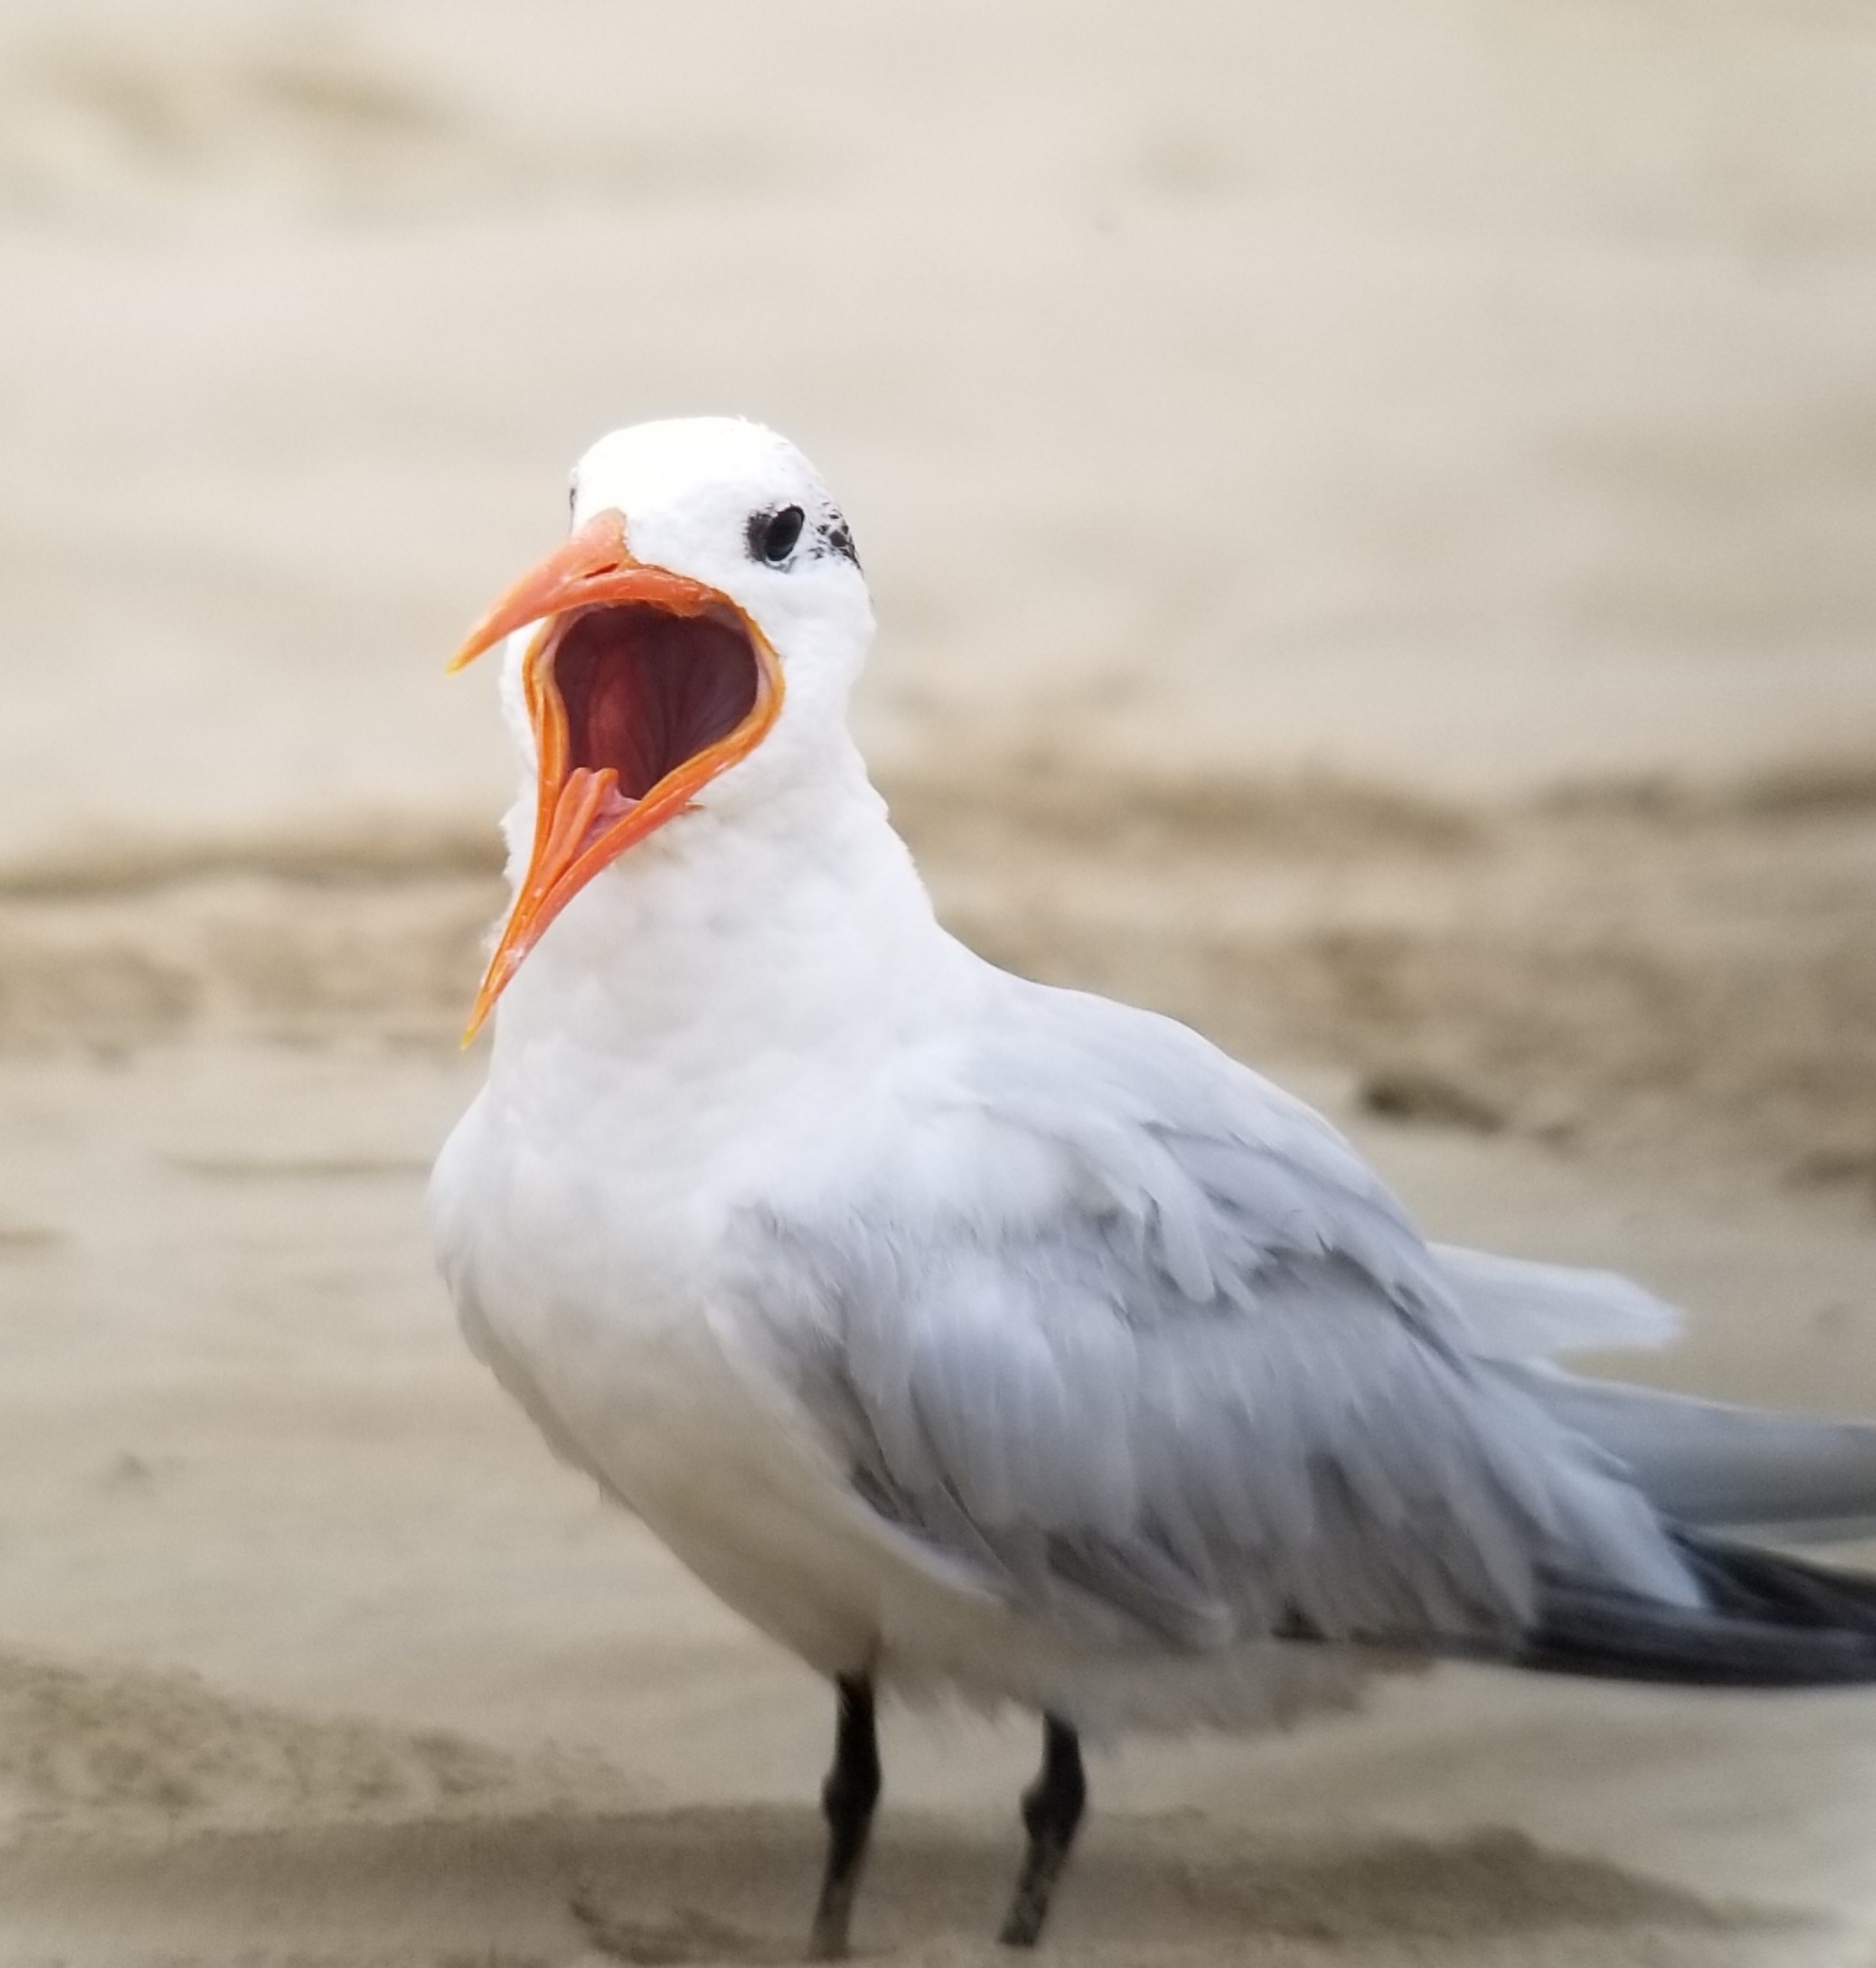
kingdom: Animalia
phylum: Chordata
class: Aves
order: Charadriiformes
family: Laridae
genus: Thalasseus
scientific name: Thalasseus maximus
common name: Royal tern
